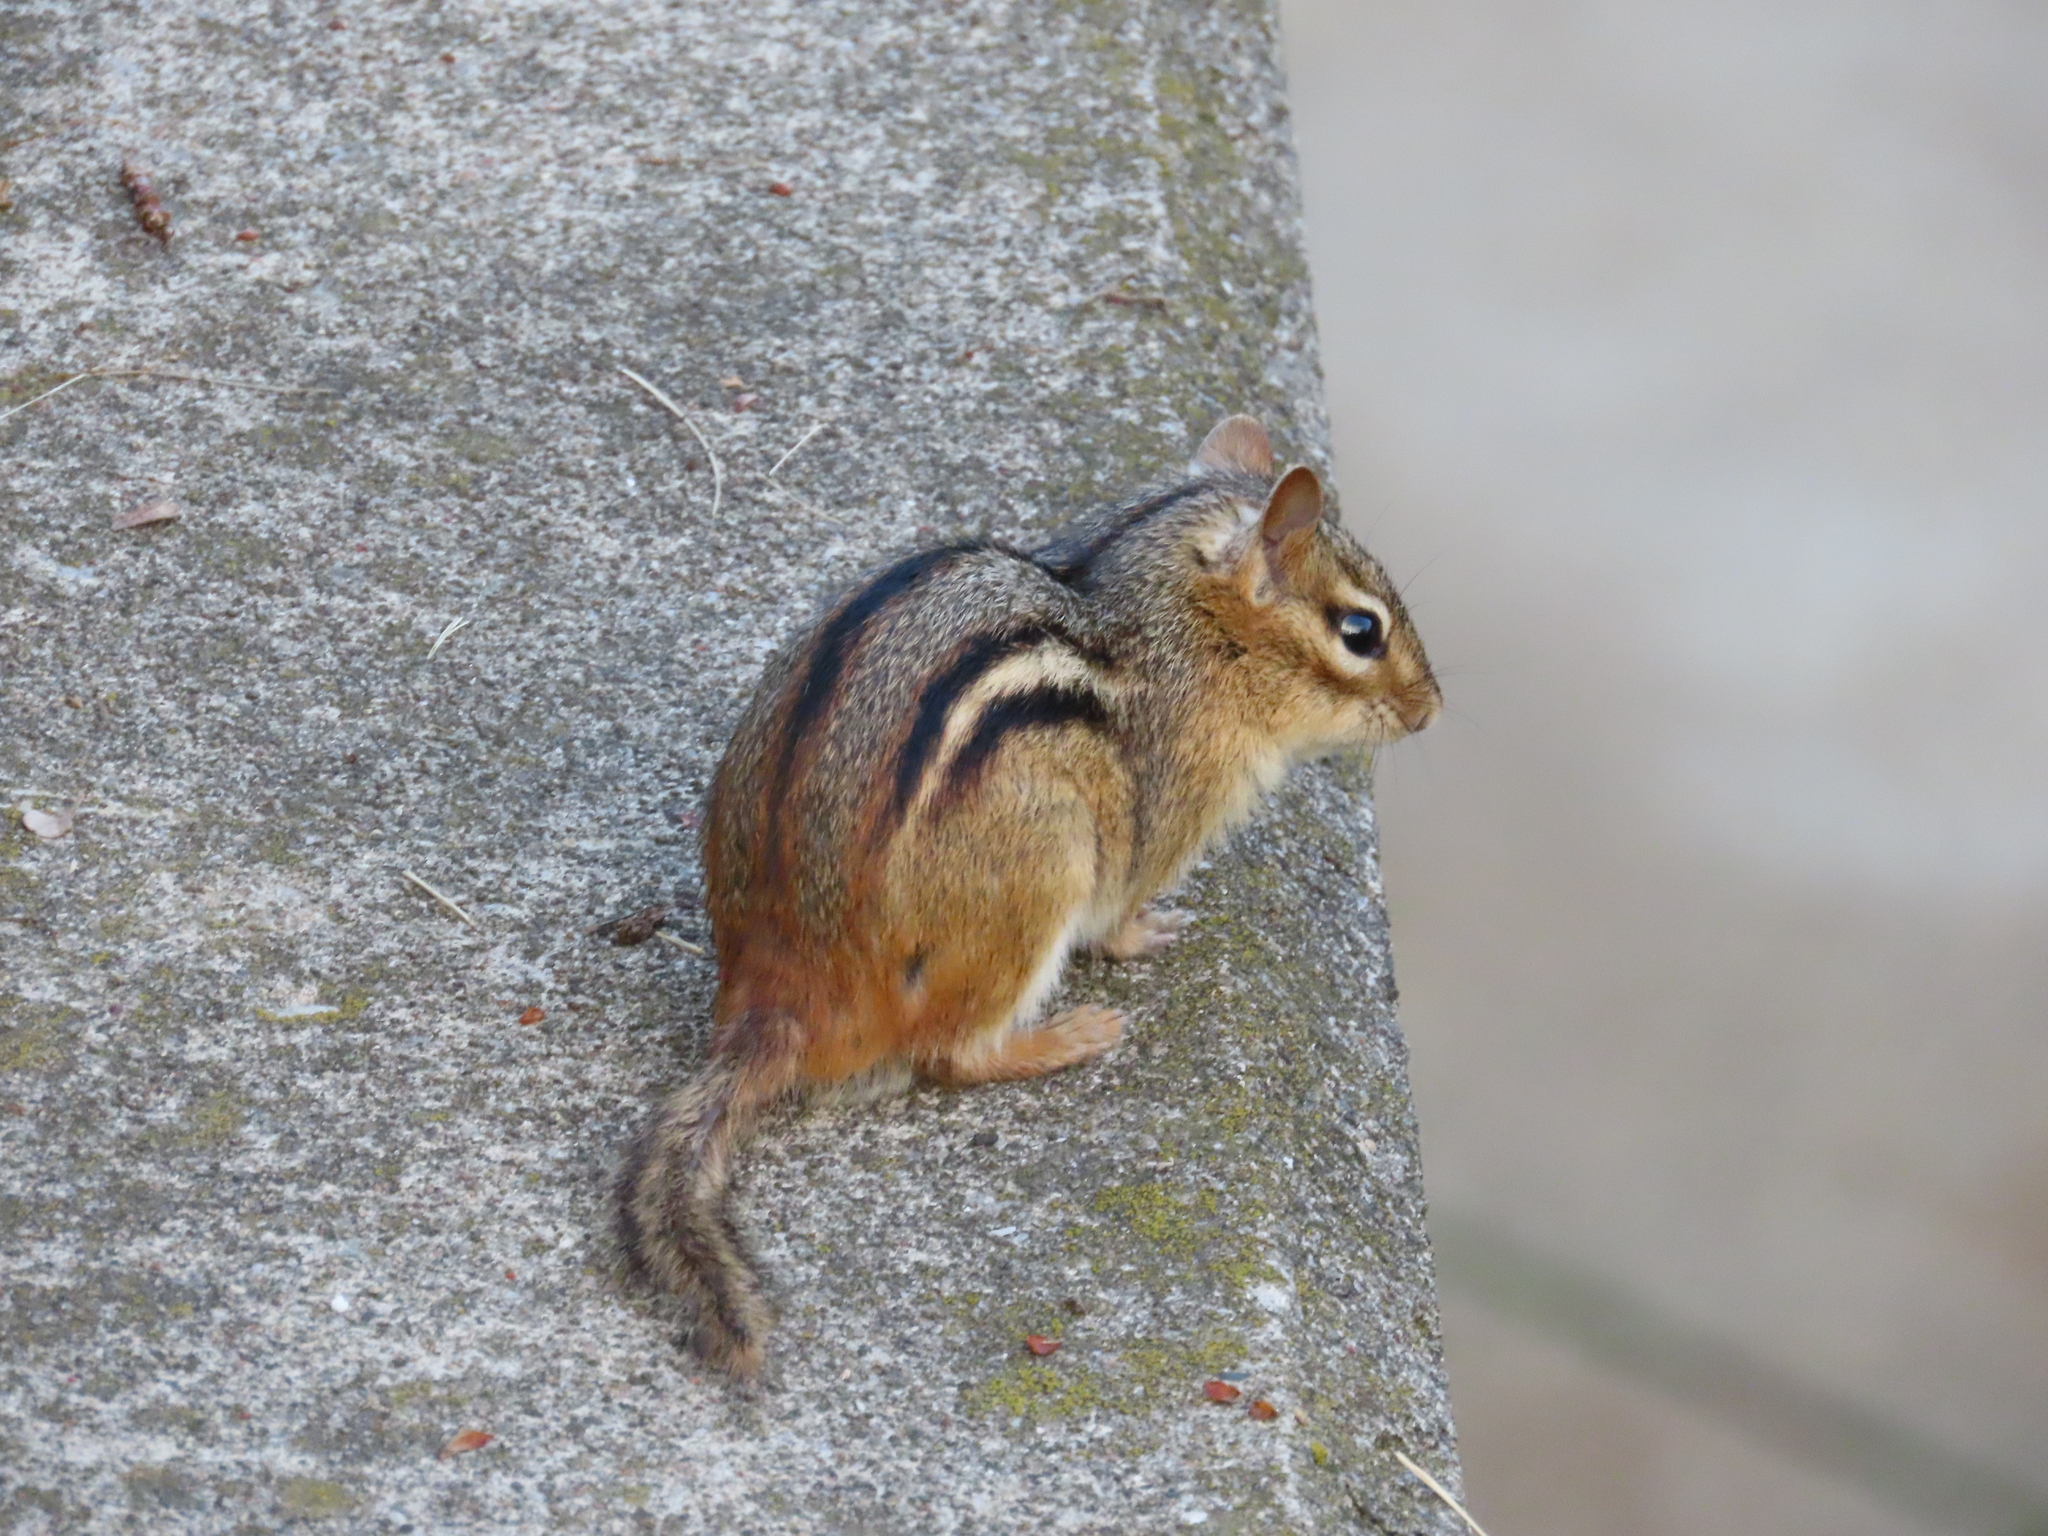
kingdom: Animalia
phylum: Chordata
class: Mammalia
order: Rodentia
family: Sciuridae
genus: Tamias
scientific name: Tamias striatus
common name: Eastern chipmunk
